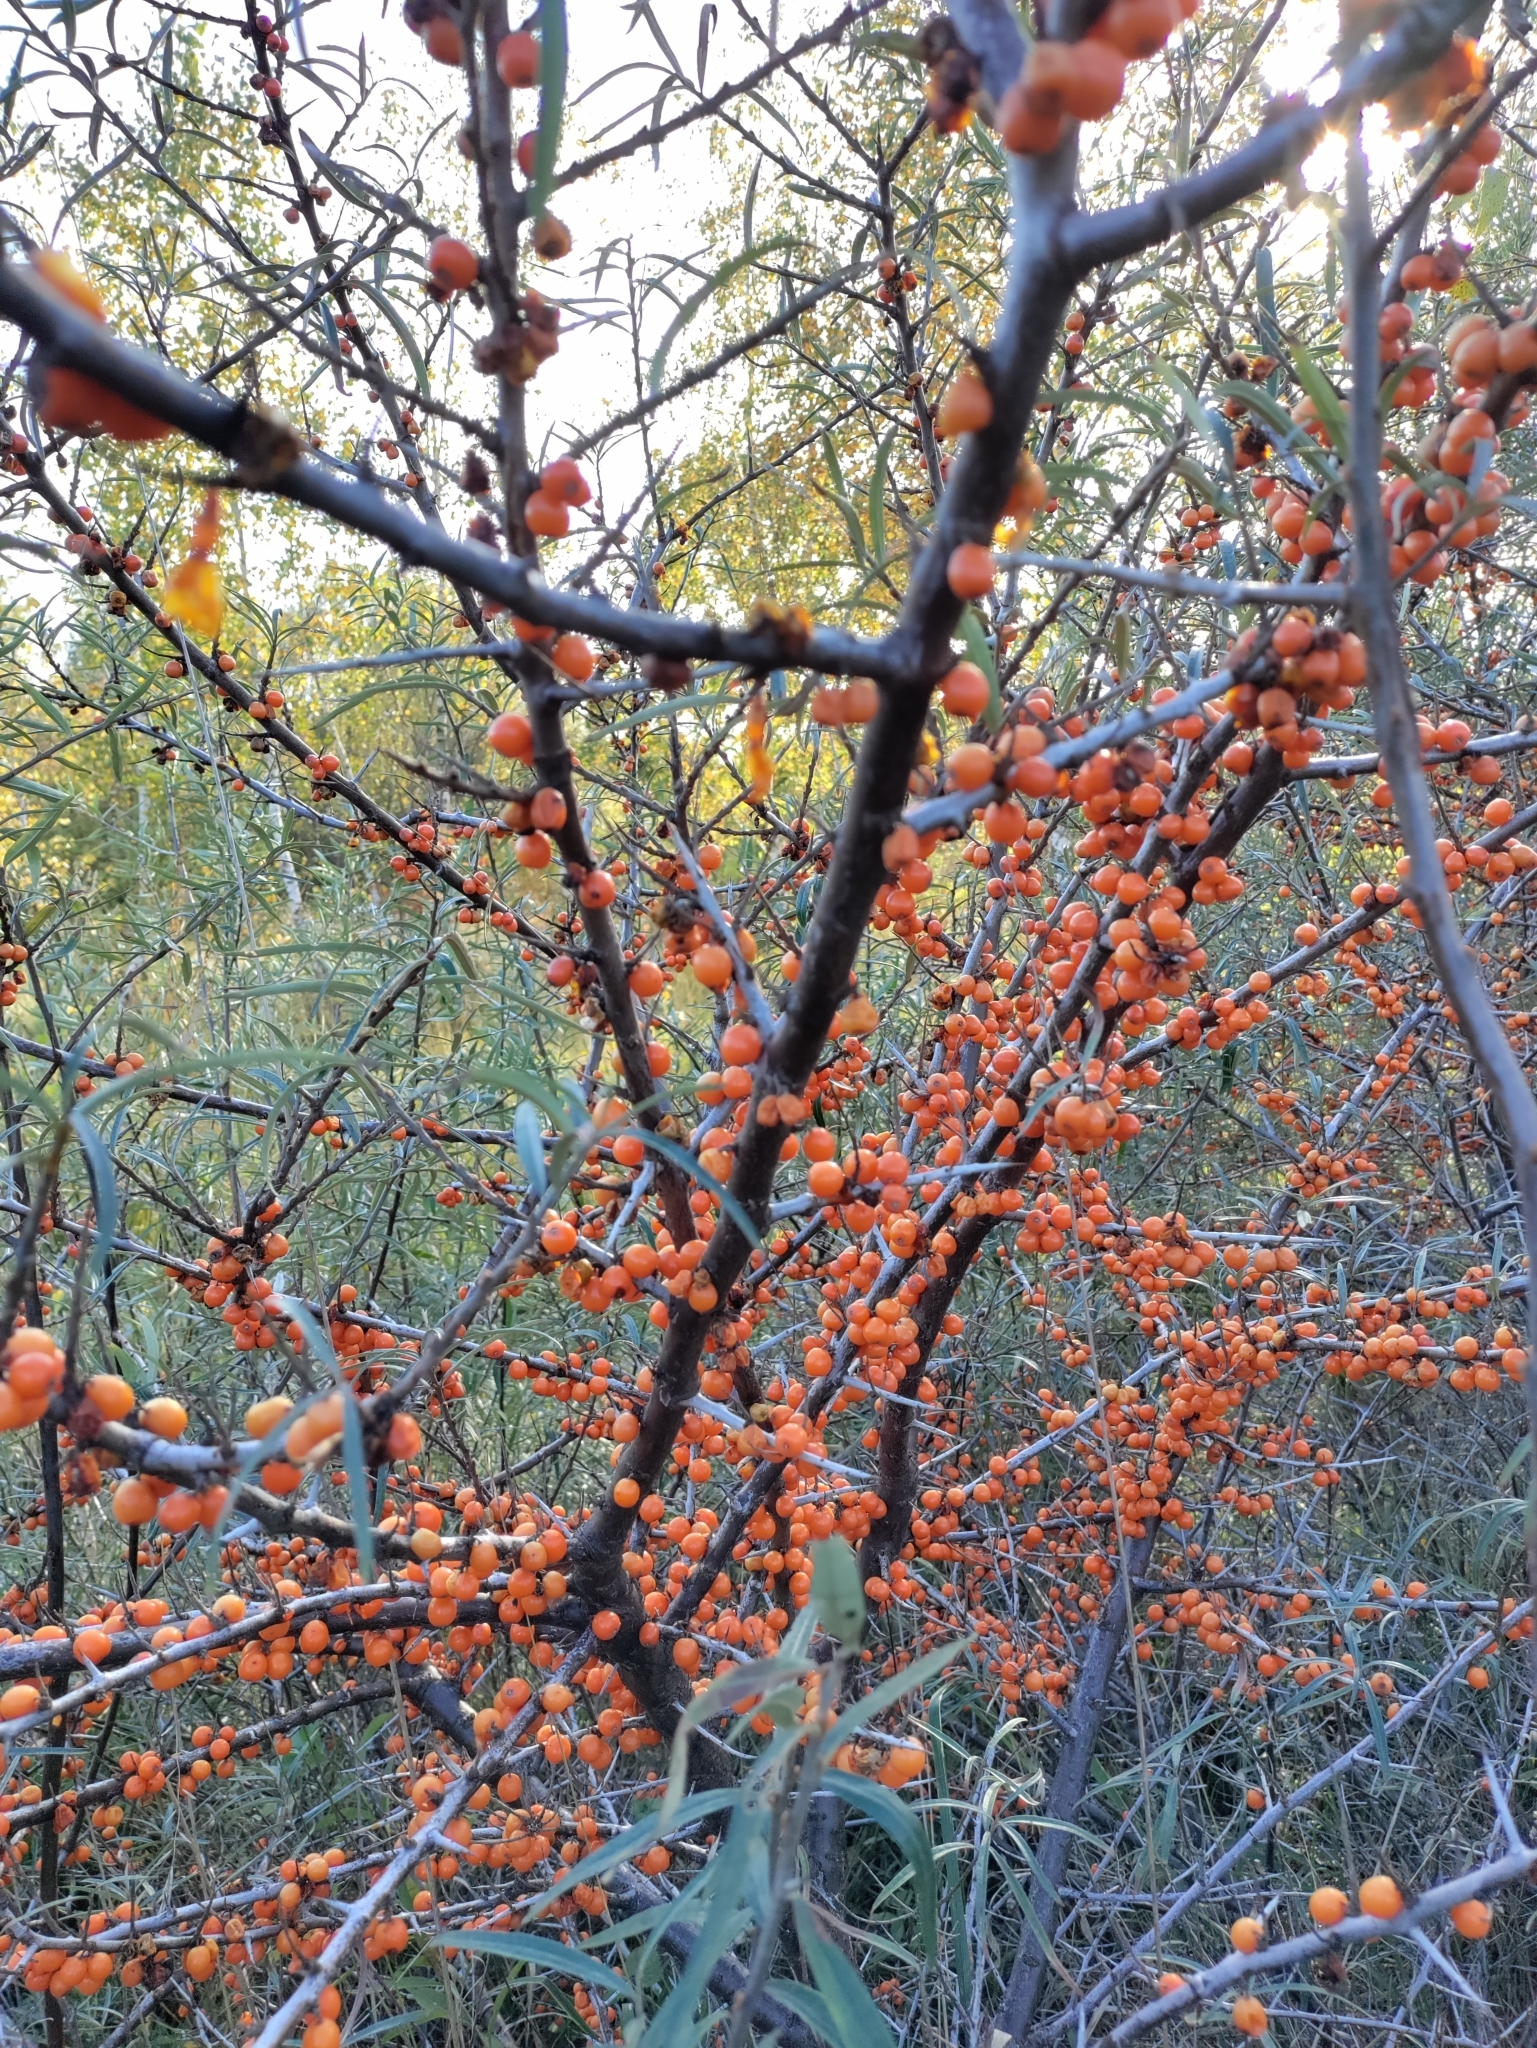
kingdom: Plantae
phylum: Tracheophyta
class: Magnoliopsida
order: Rosales
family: Elaeagnaceae
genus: Hippophae
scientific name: Hippophae rhamnoides
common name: Sea-buckthorn
